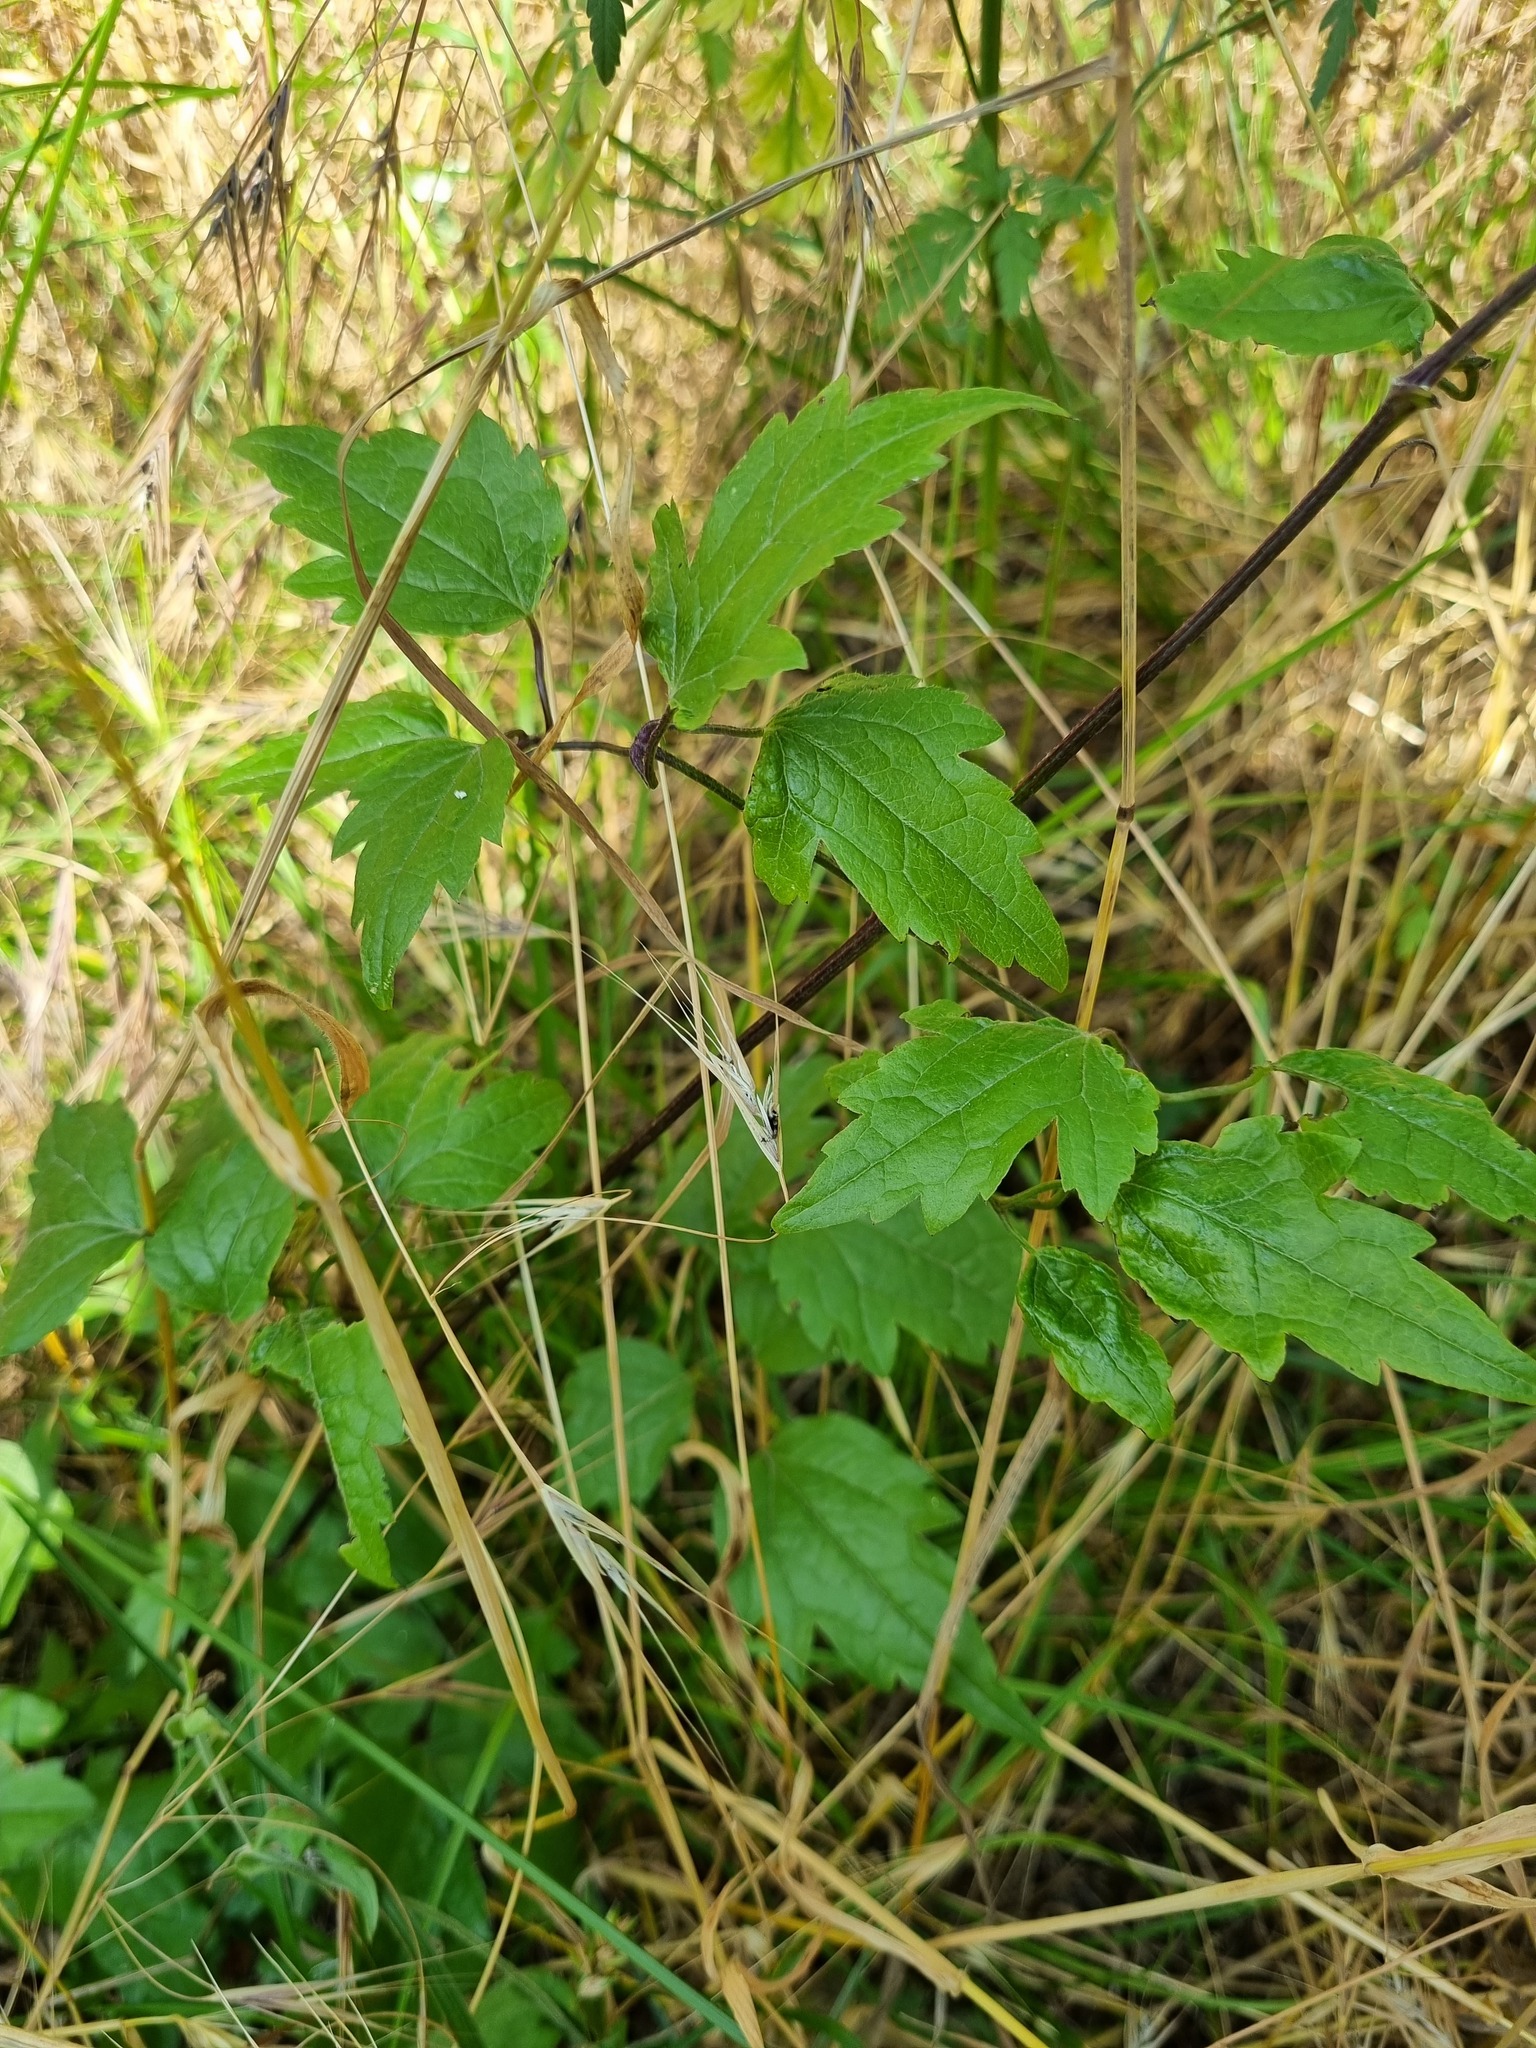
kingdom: Plantae
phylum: Tracheophyta
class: Magnoliopsida
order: Ranunculales
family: Ranunculaceae
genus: Clematis
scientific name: Clematis vitalba
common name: Evergreen clematis
